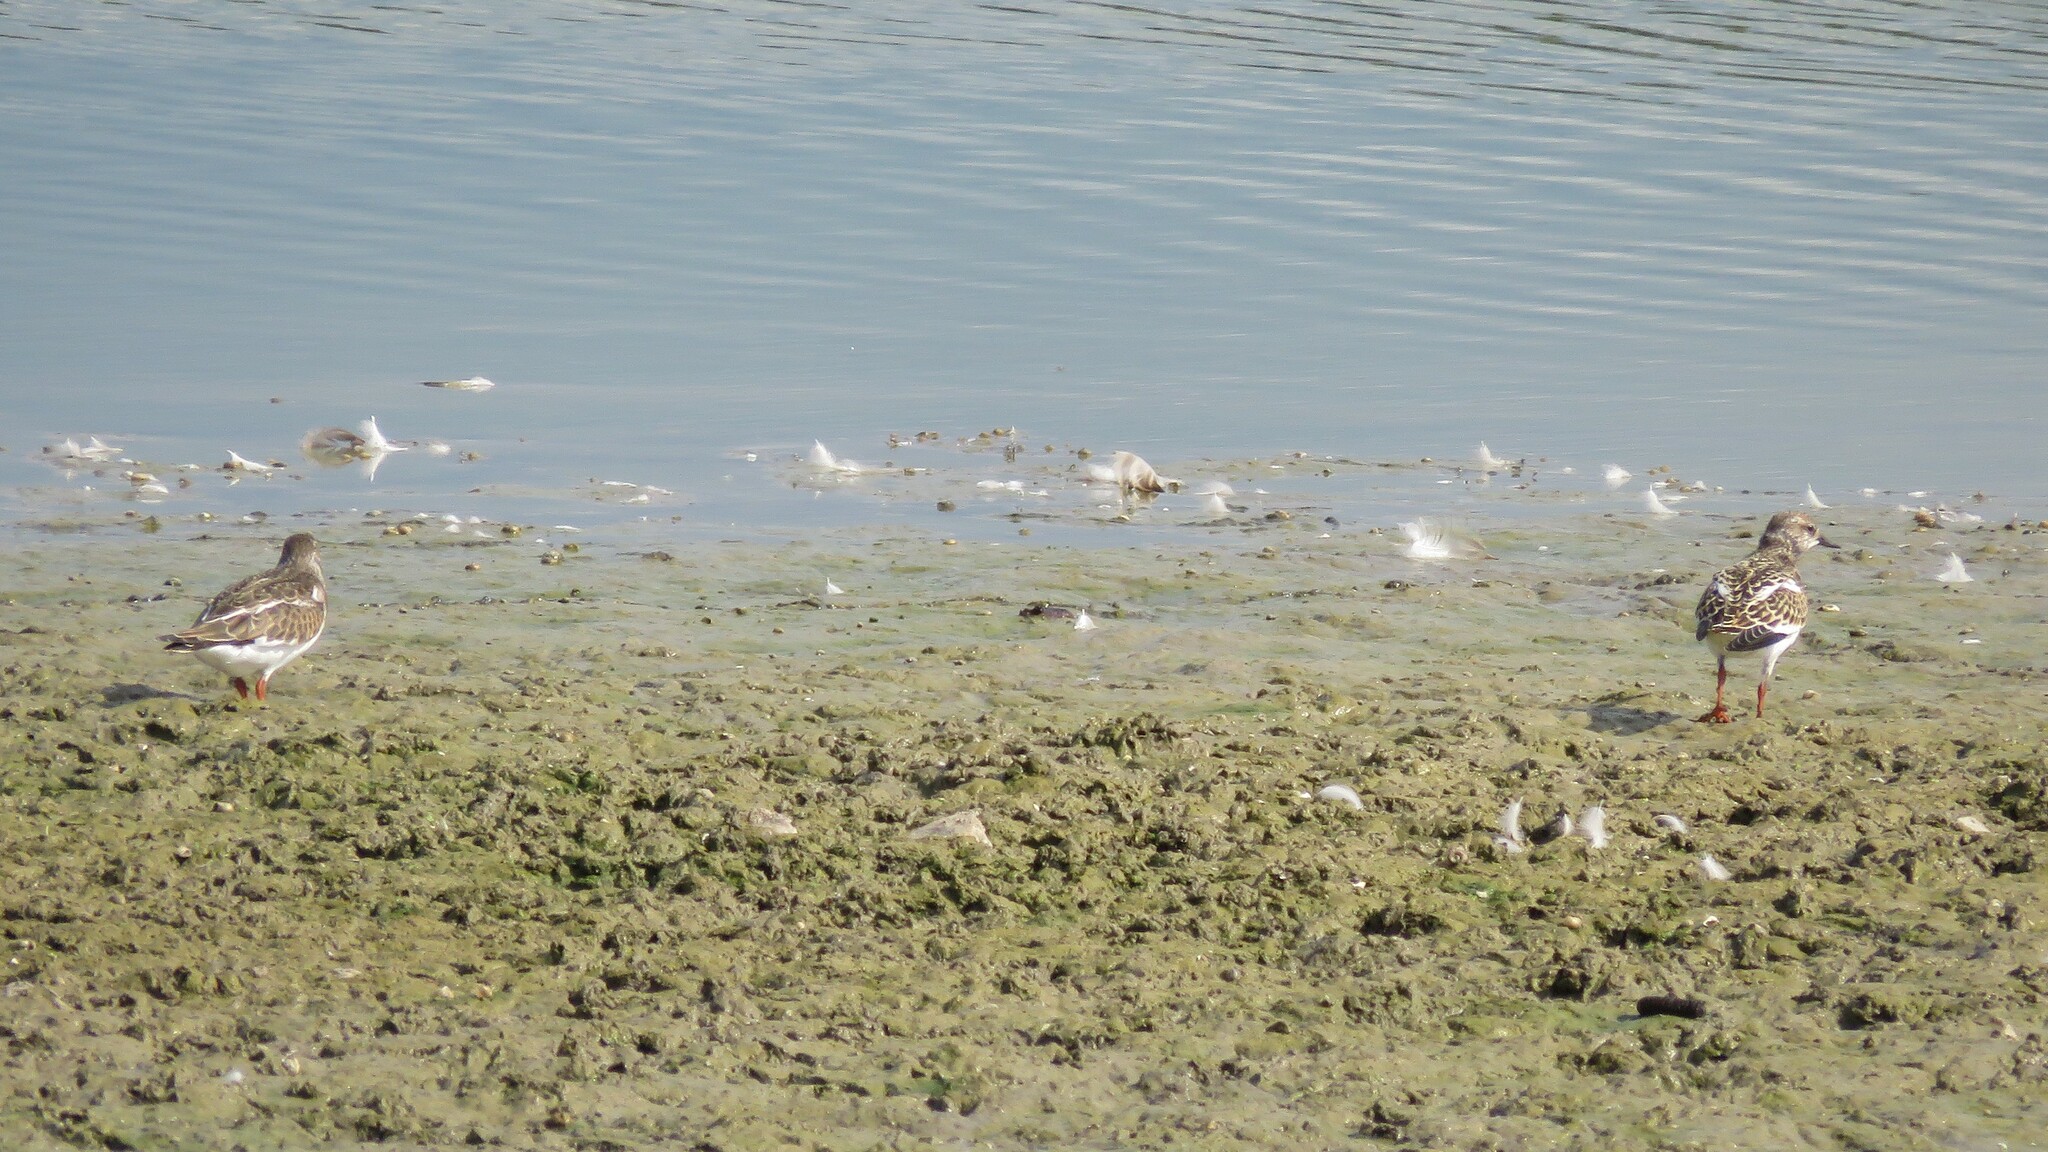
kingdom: Animalia
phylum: Chordata
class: Aves
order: Charadriiformes
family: Scolopacidae
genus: Arenaria
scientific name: Arenaria interpres
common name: Ruddy turnstone
